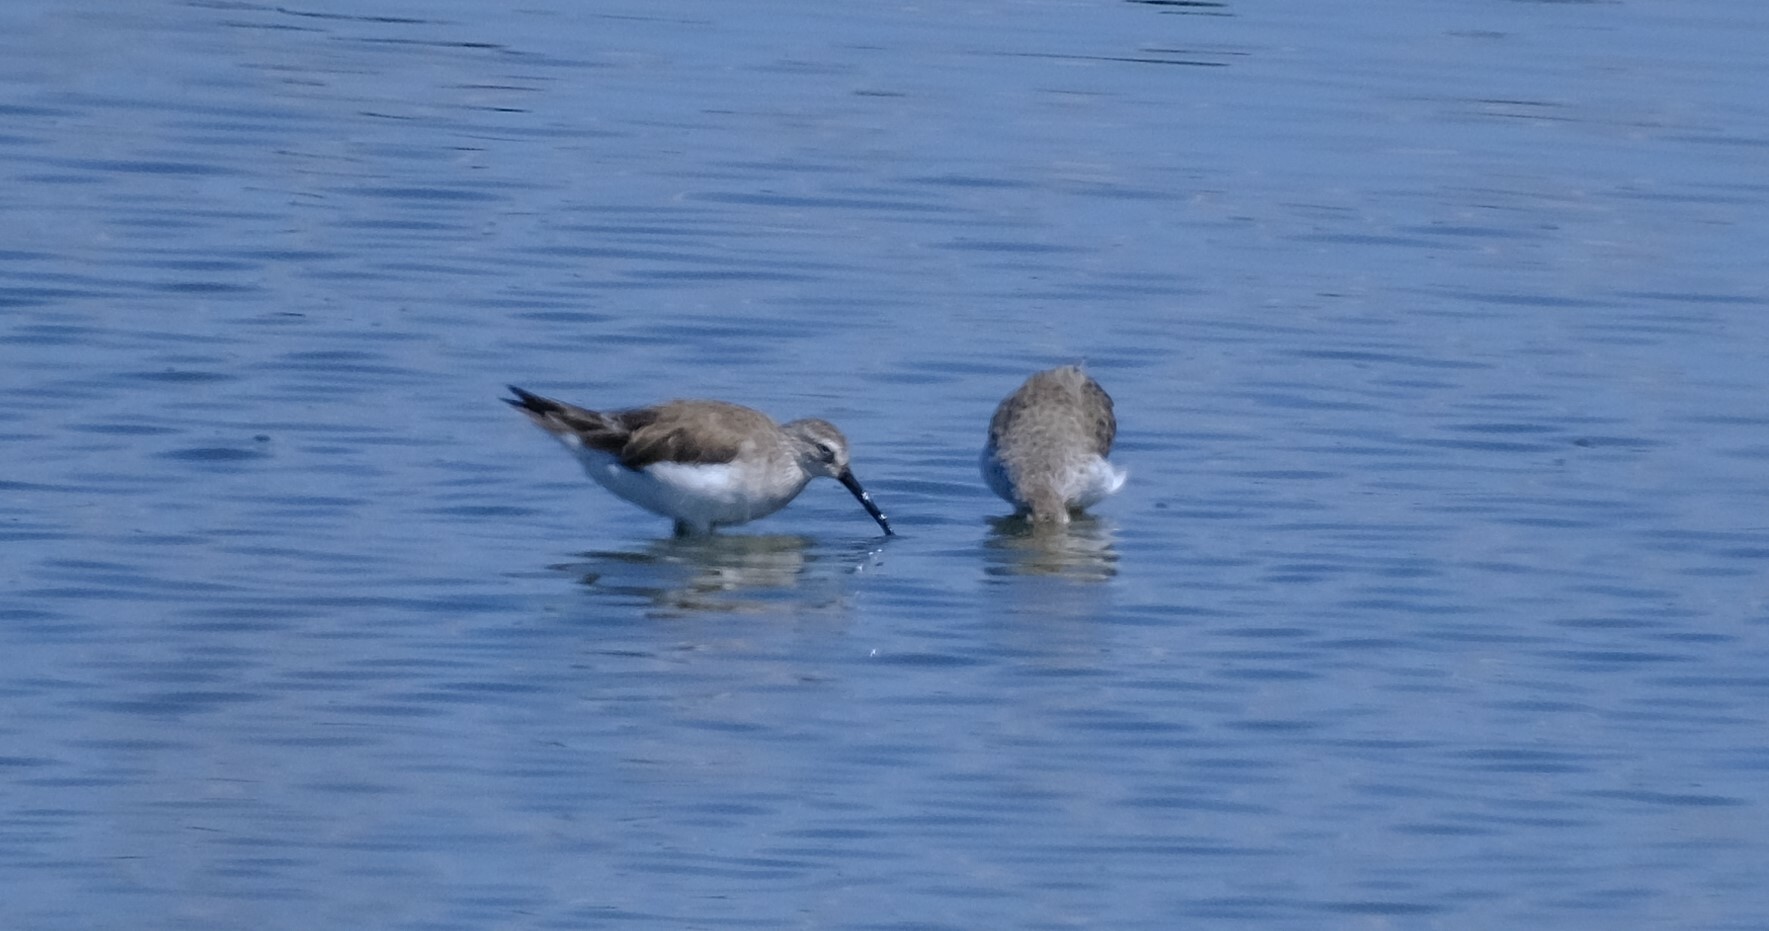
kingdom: Animalia
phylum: Chordata
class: Aves
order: Charadriiformes
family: Scolopacidae
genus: Calidris
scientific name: Calidris ferruginea
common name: Curlew sandpiper
